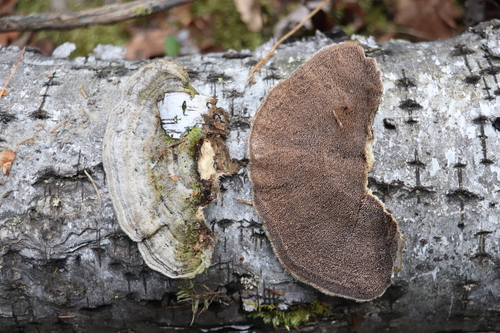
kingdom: Fungi
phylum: Basidiomycota
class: Agaricomycetes
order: Polyporales
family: Cerrenaceae
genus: Cerrena
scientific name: Cerrena unicolor
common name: Mossy maze polypore
